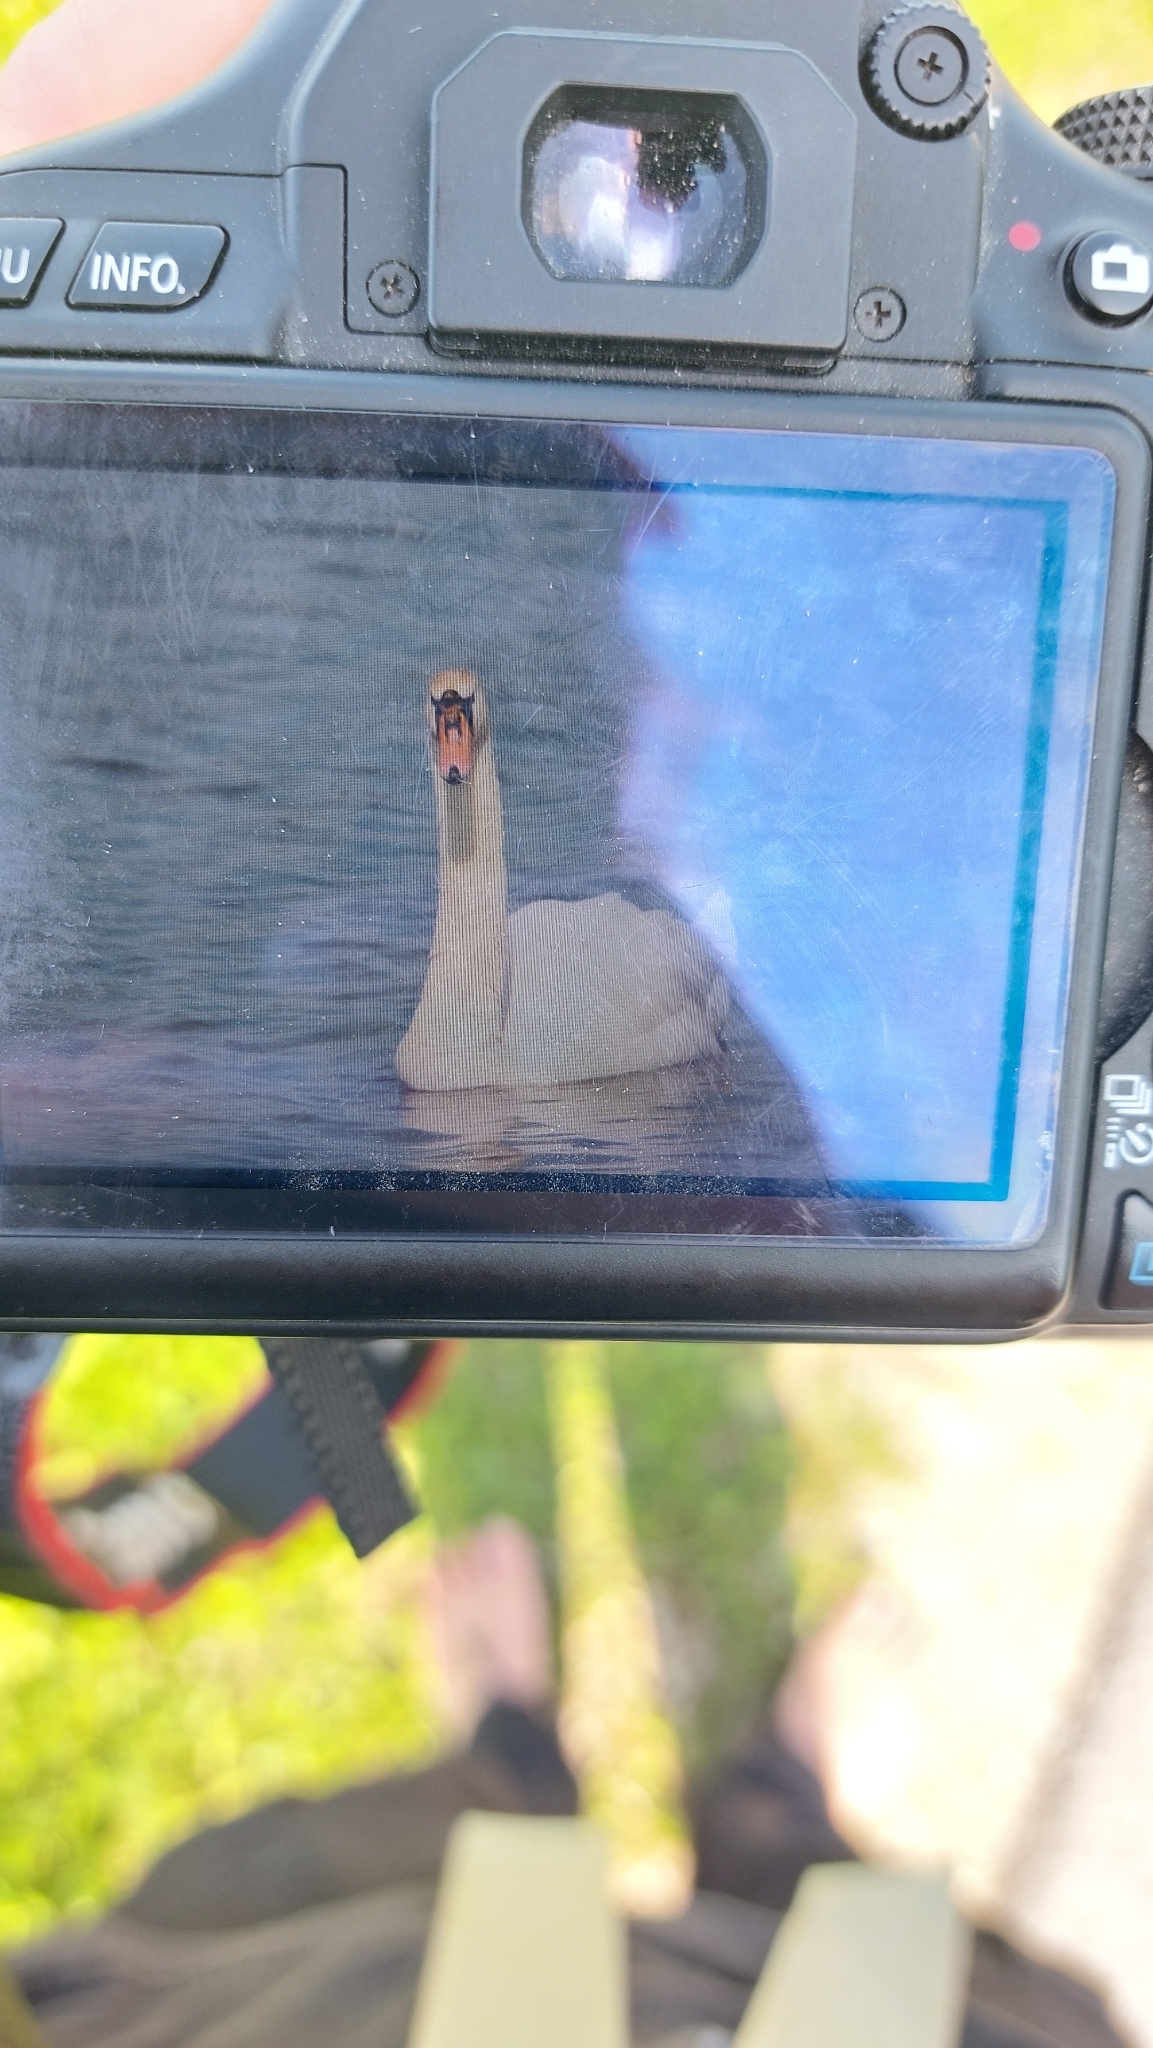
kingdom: Animalia
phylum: Chordata
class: Aves
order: Anseriformes
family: Anatidae
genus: Cygnus
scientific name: Cygnus olor
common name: Mute swan
